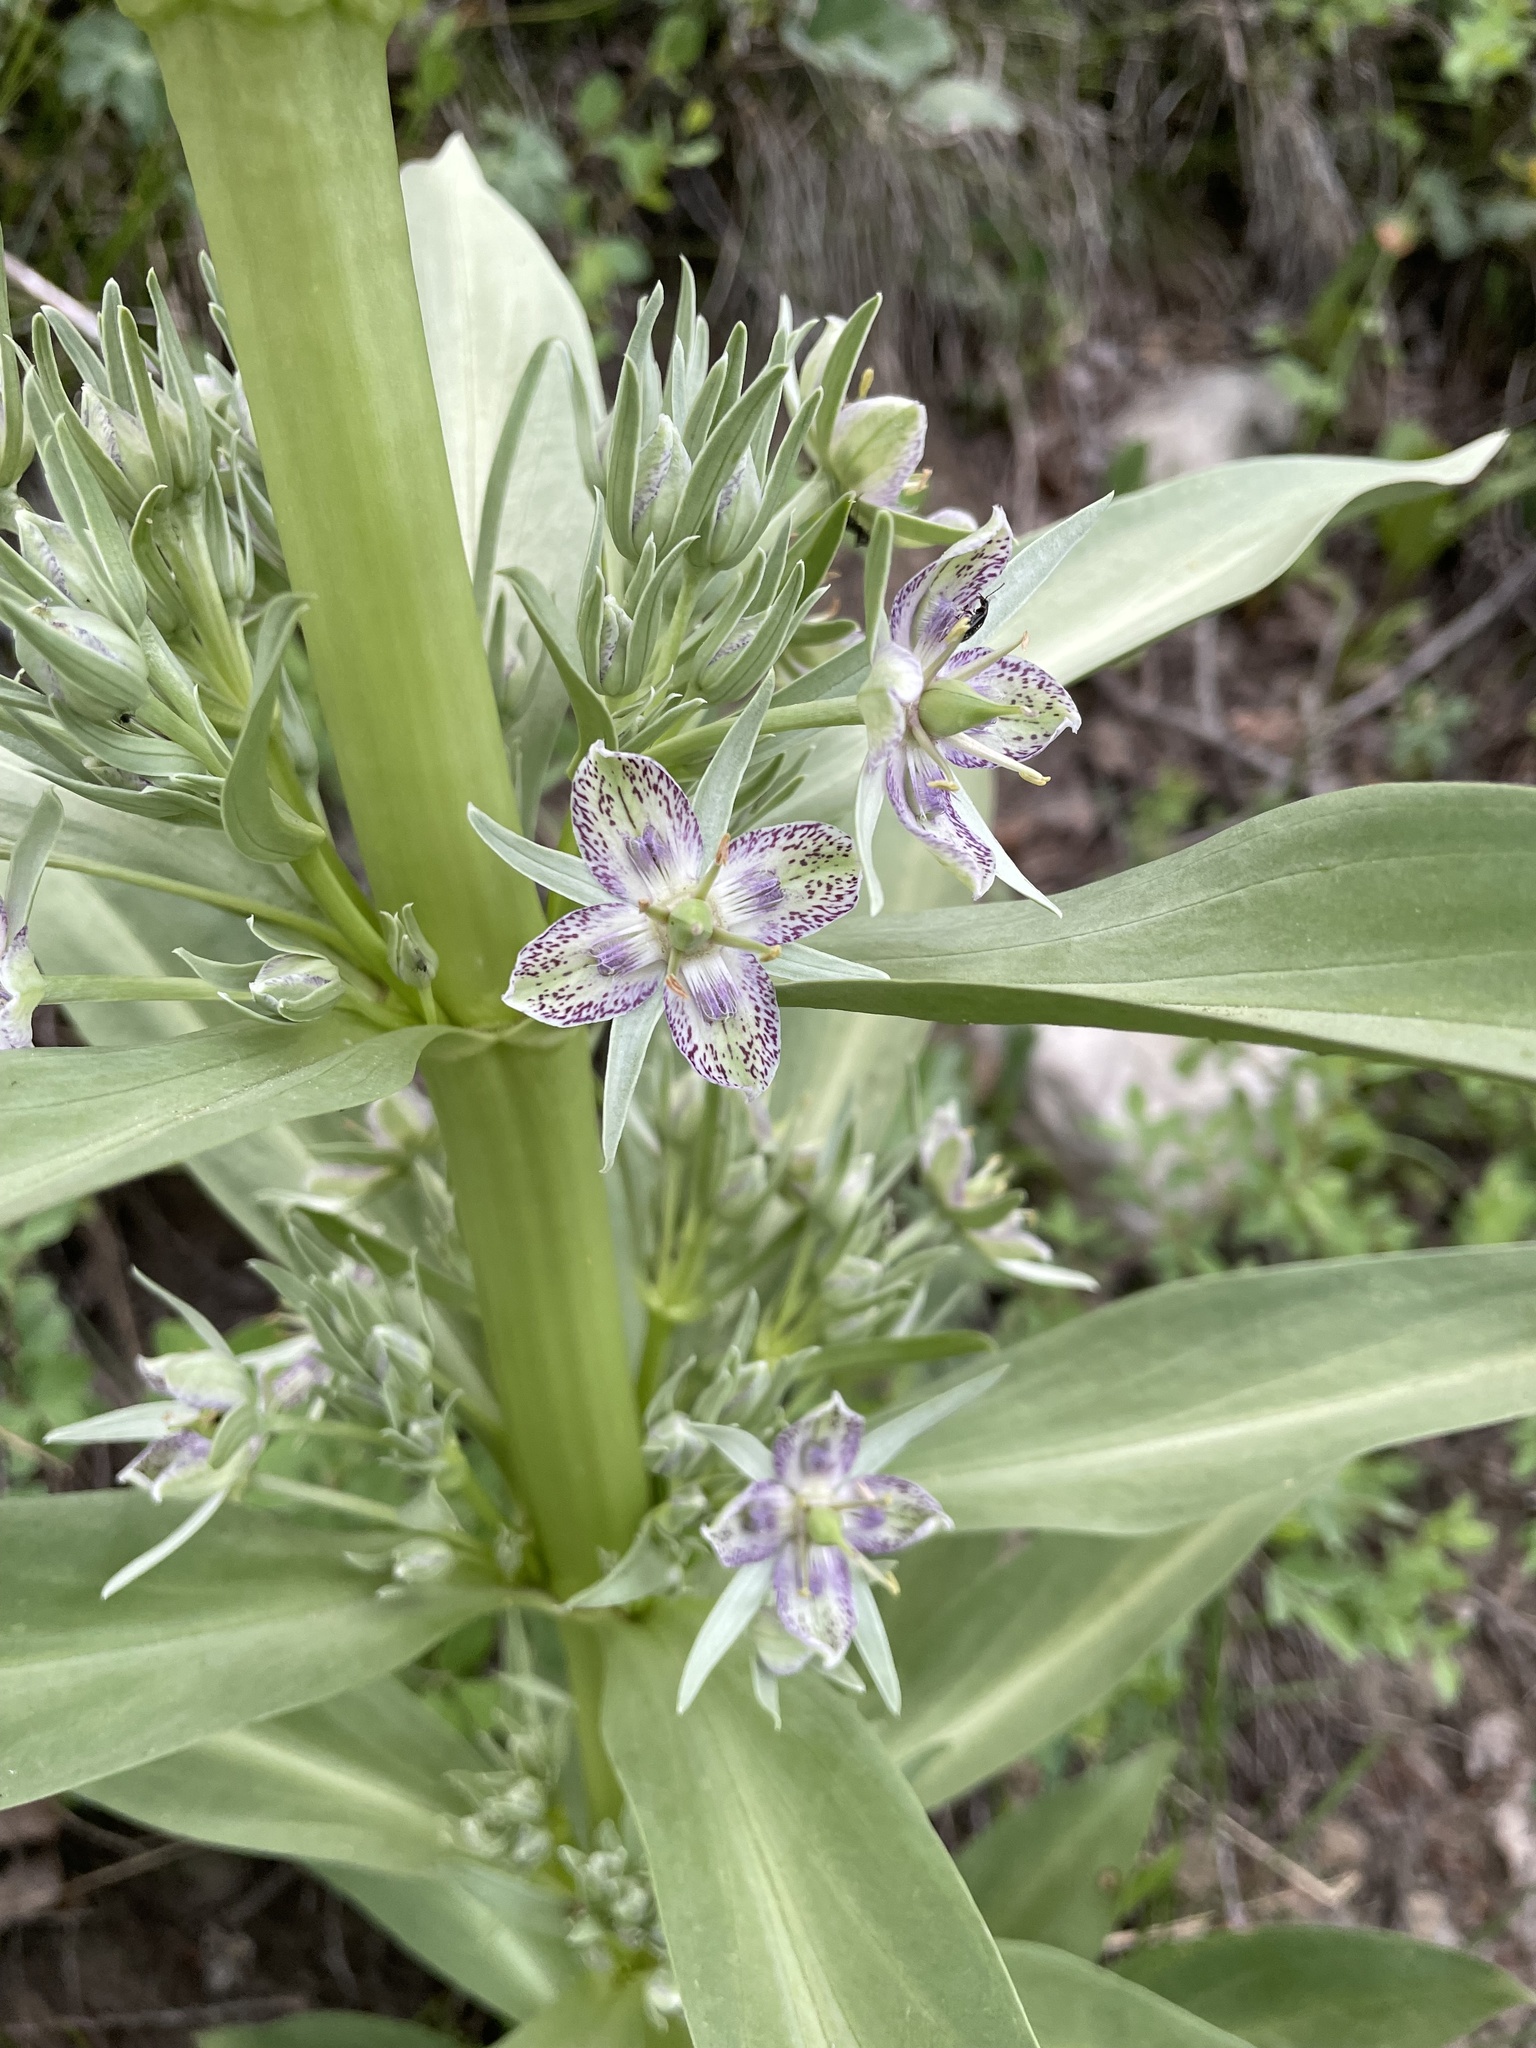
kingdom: Plantae
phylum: Tracheophyta
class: Magnoliopsida
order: Gentianales
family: Gentianaceae
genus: Frasera
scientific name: Frasera speciosa
